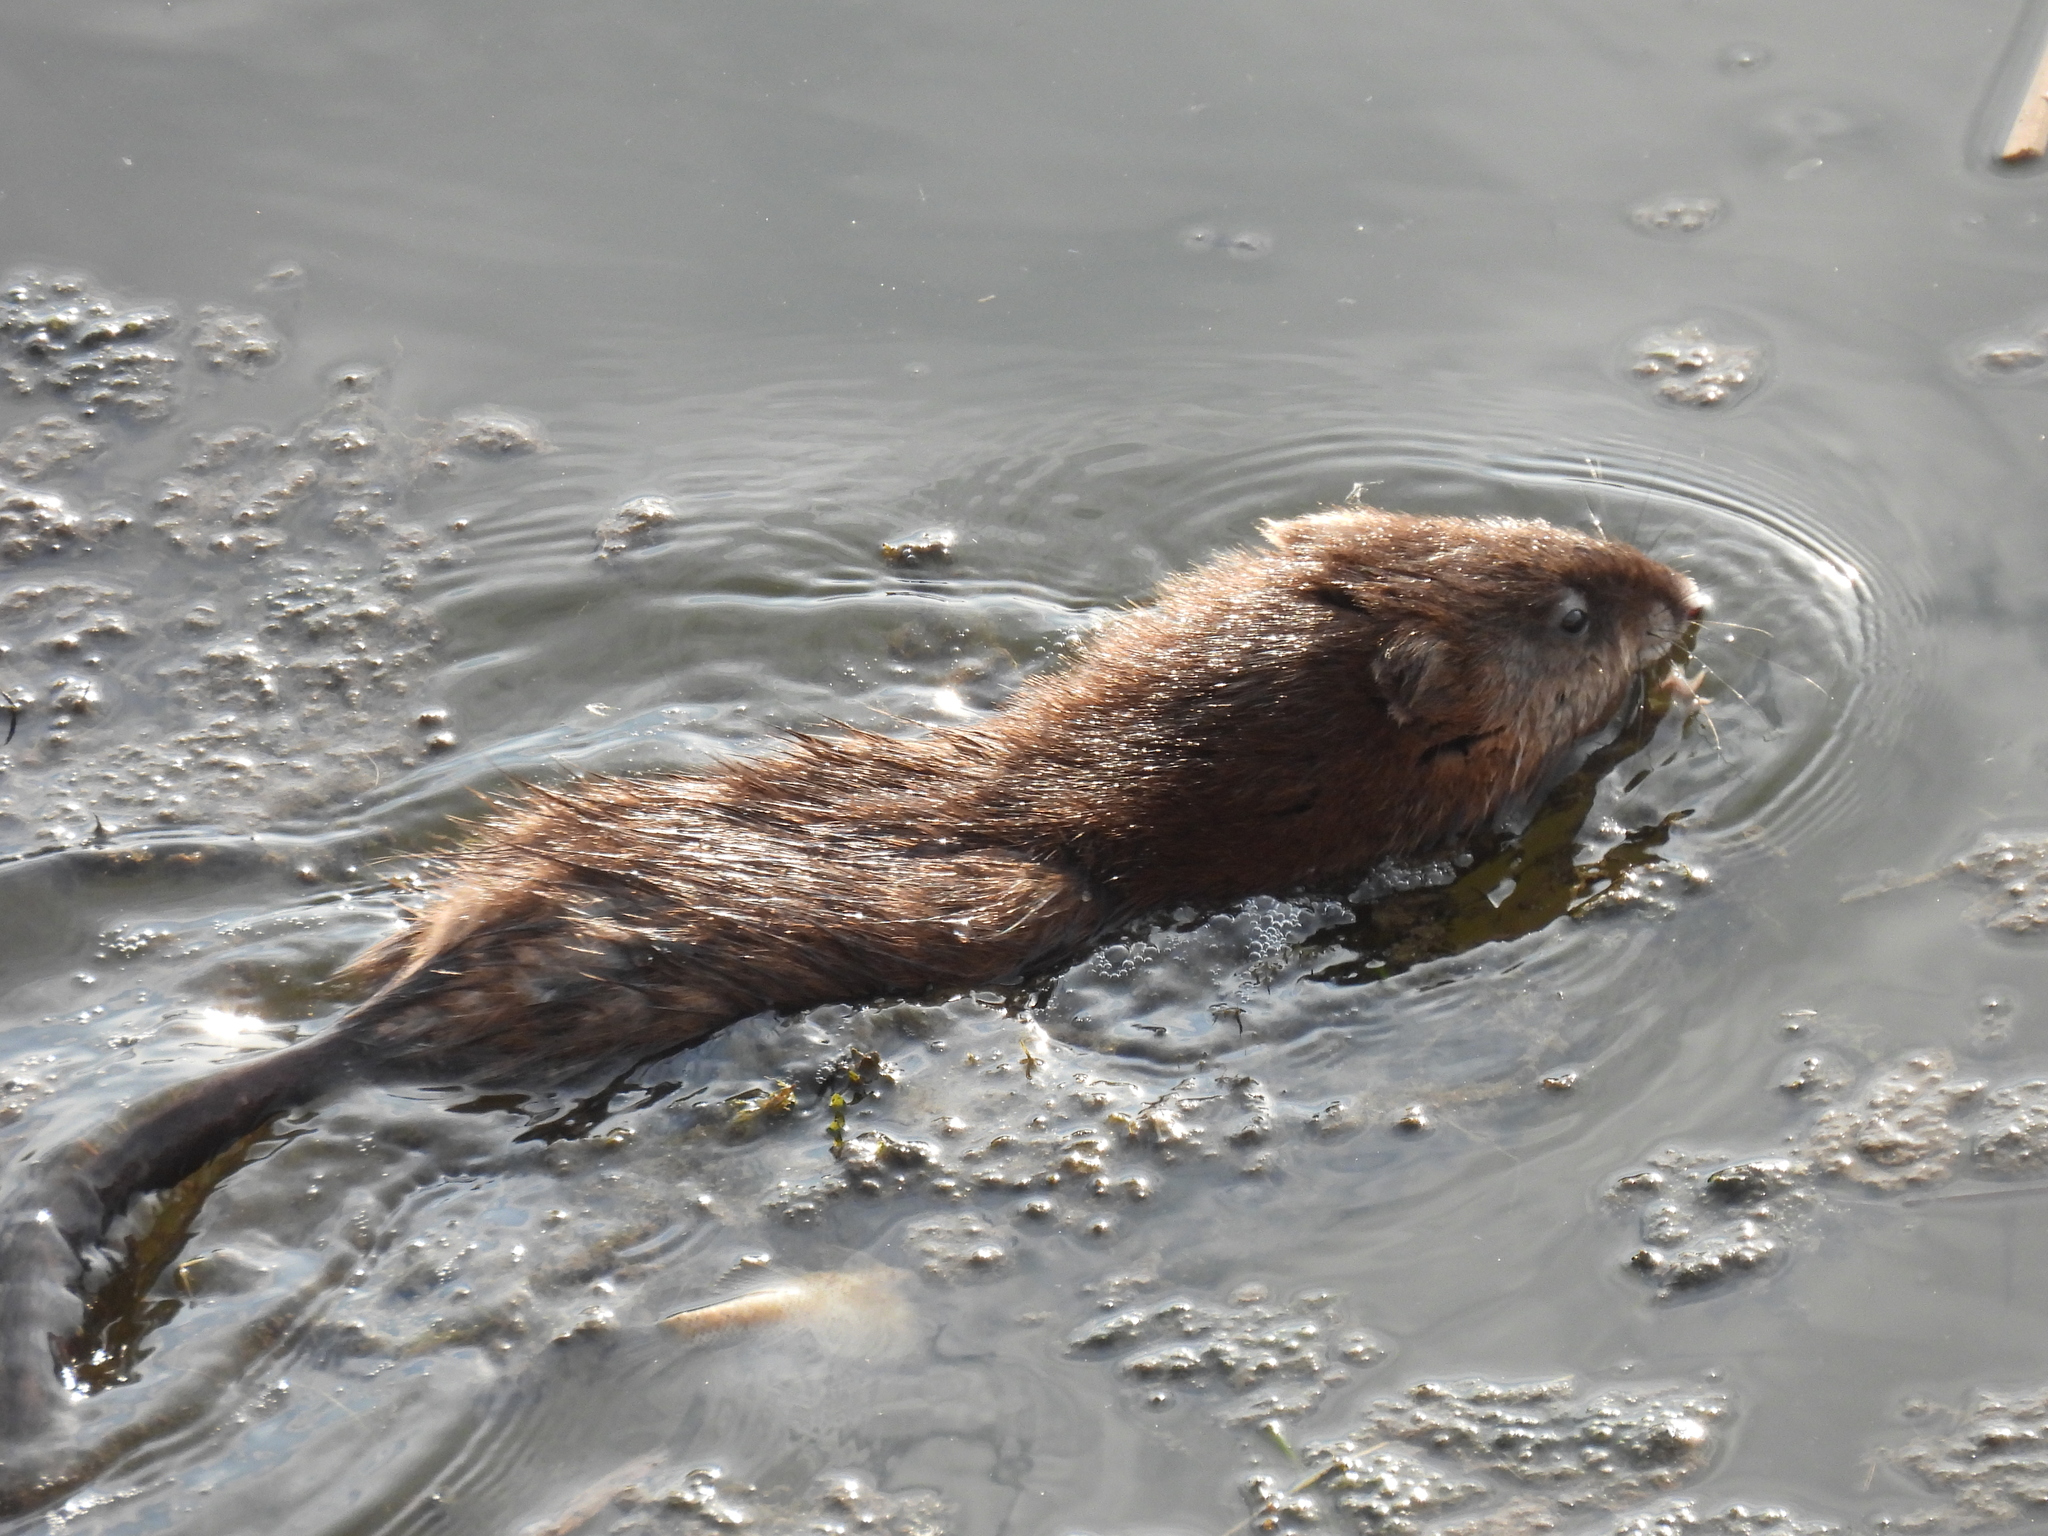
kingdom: Animalia
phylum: Chordata
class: Mammalia
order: Rodentia
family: Cricetidae
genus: Ondatra
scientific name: Ondatra zibethicus
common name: Muskrat
